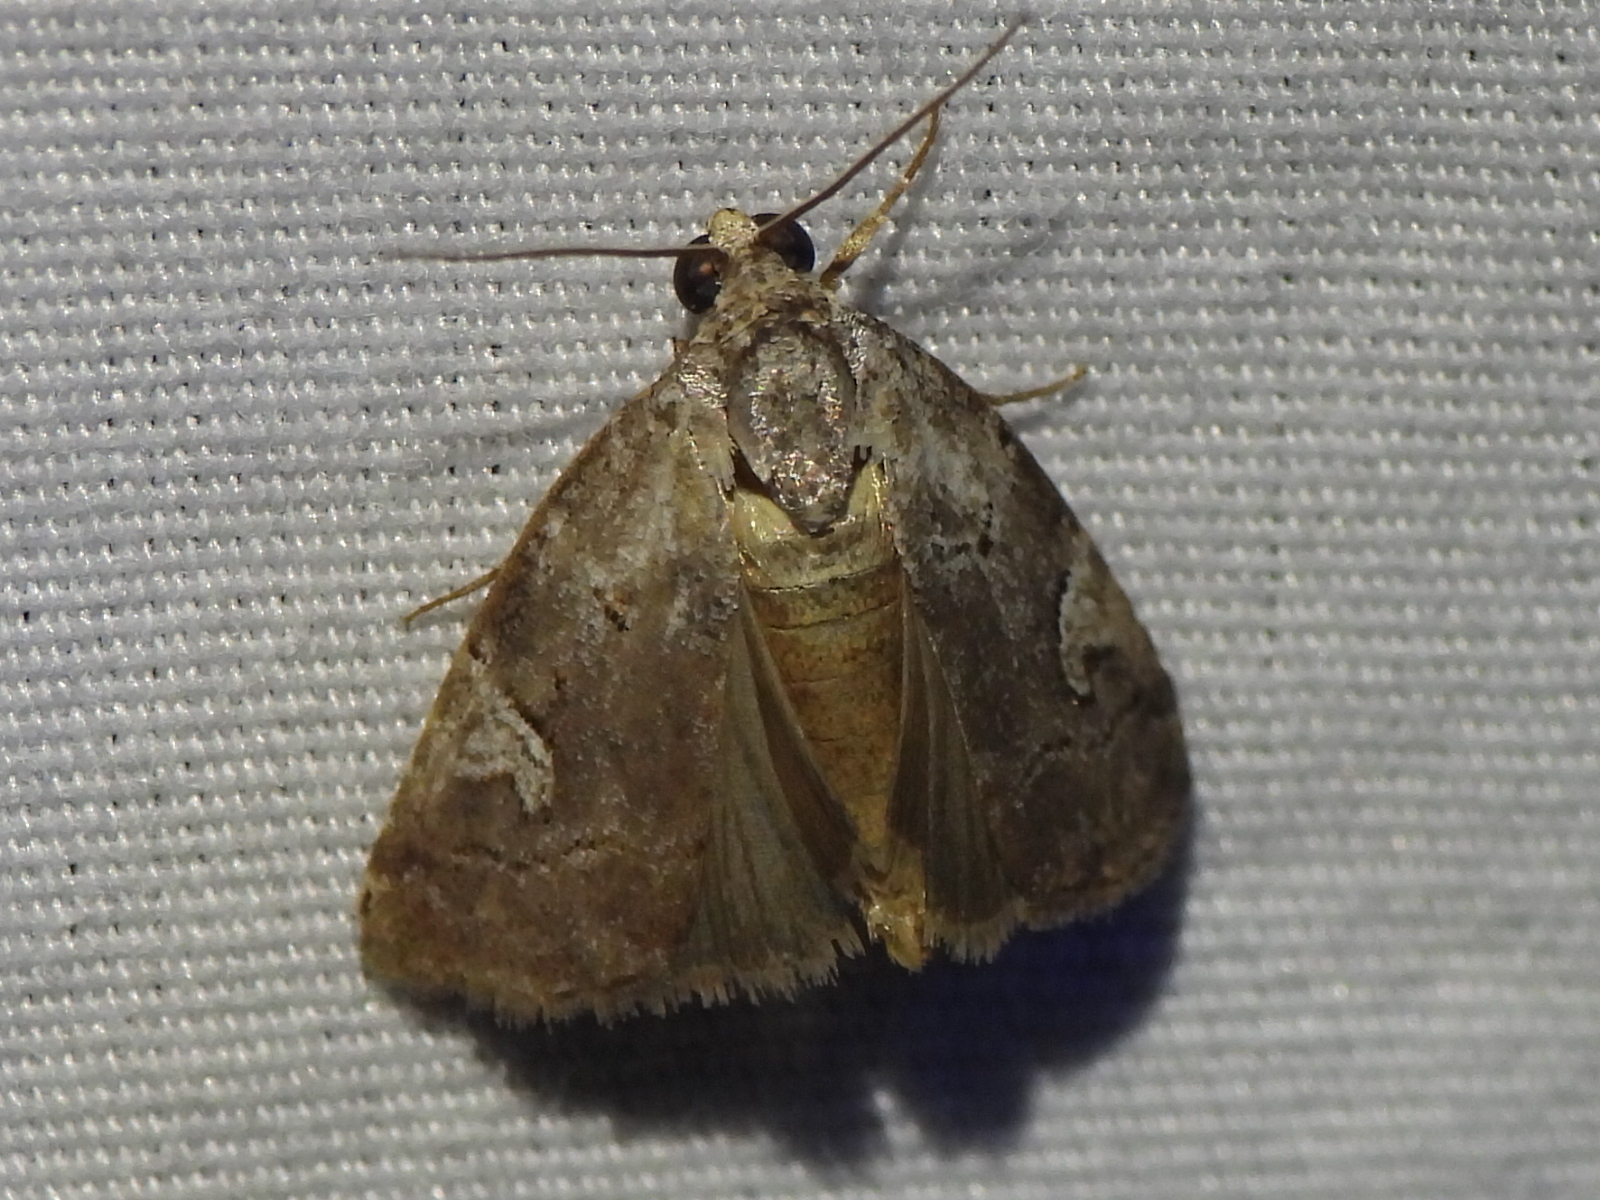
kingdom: Animalia
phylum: Arthropoda
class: Insecta
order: Lepidoptera
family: Noctuidae
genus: Metaponpneumata
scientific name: Metaponpneumata rogenhoferi
